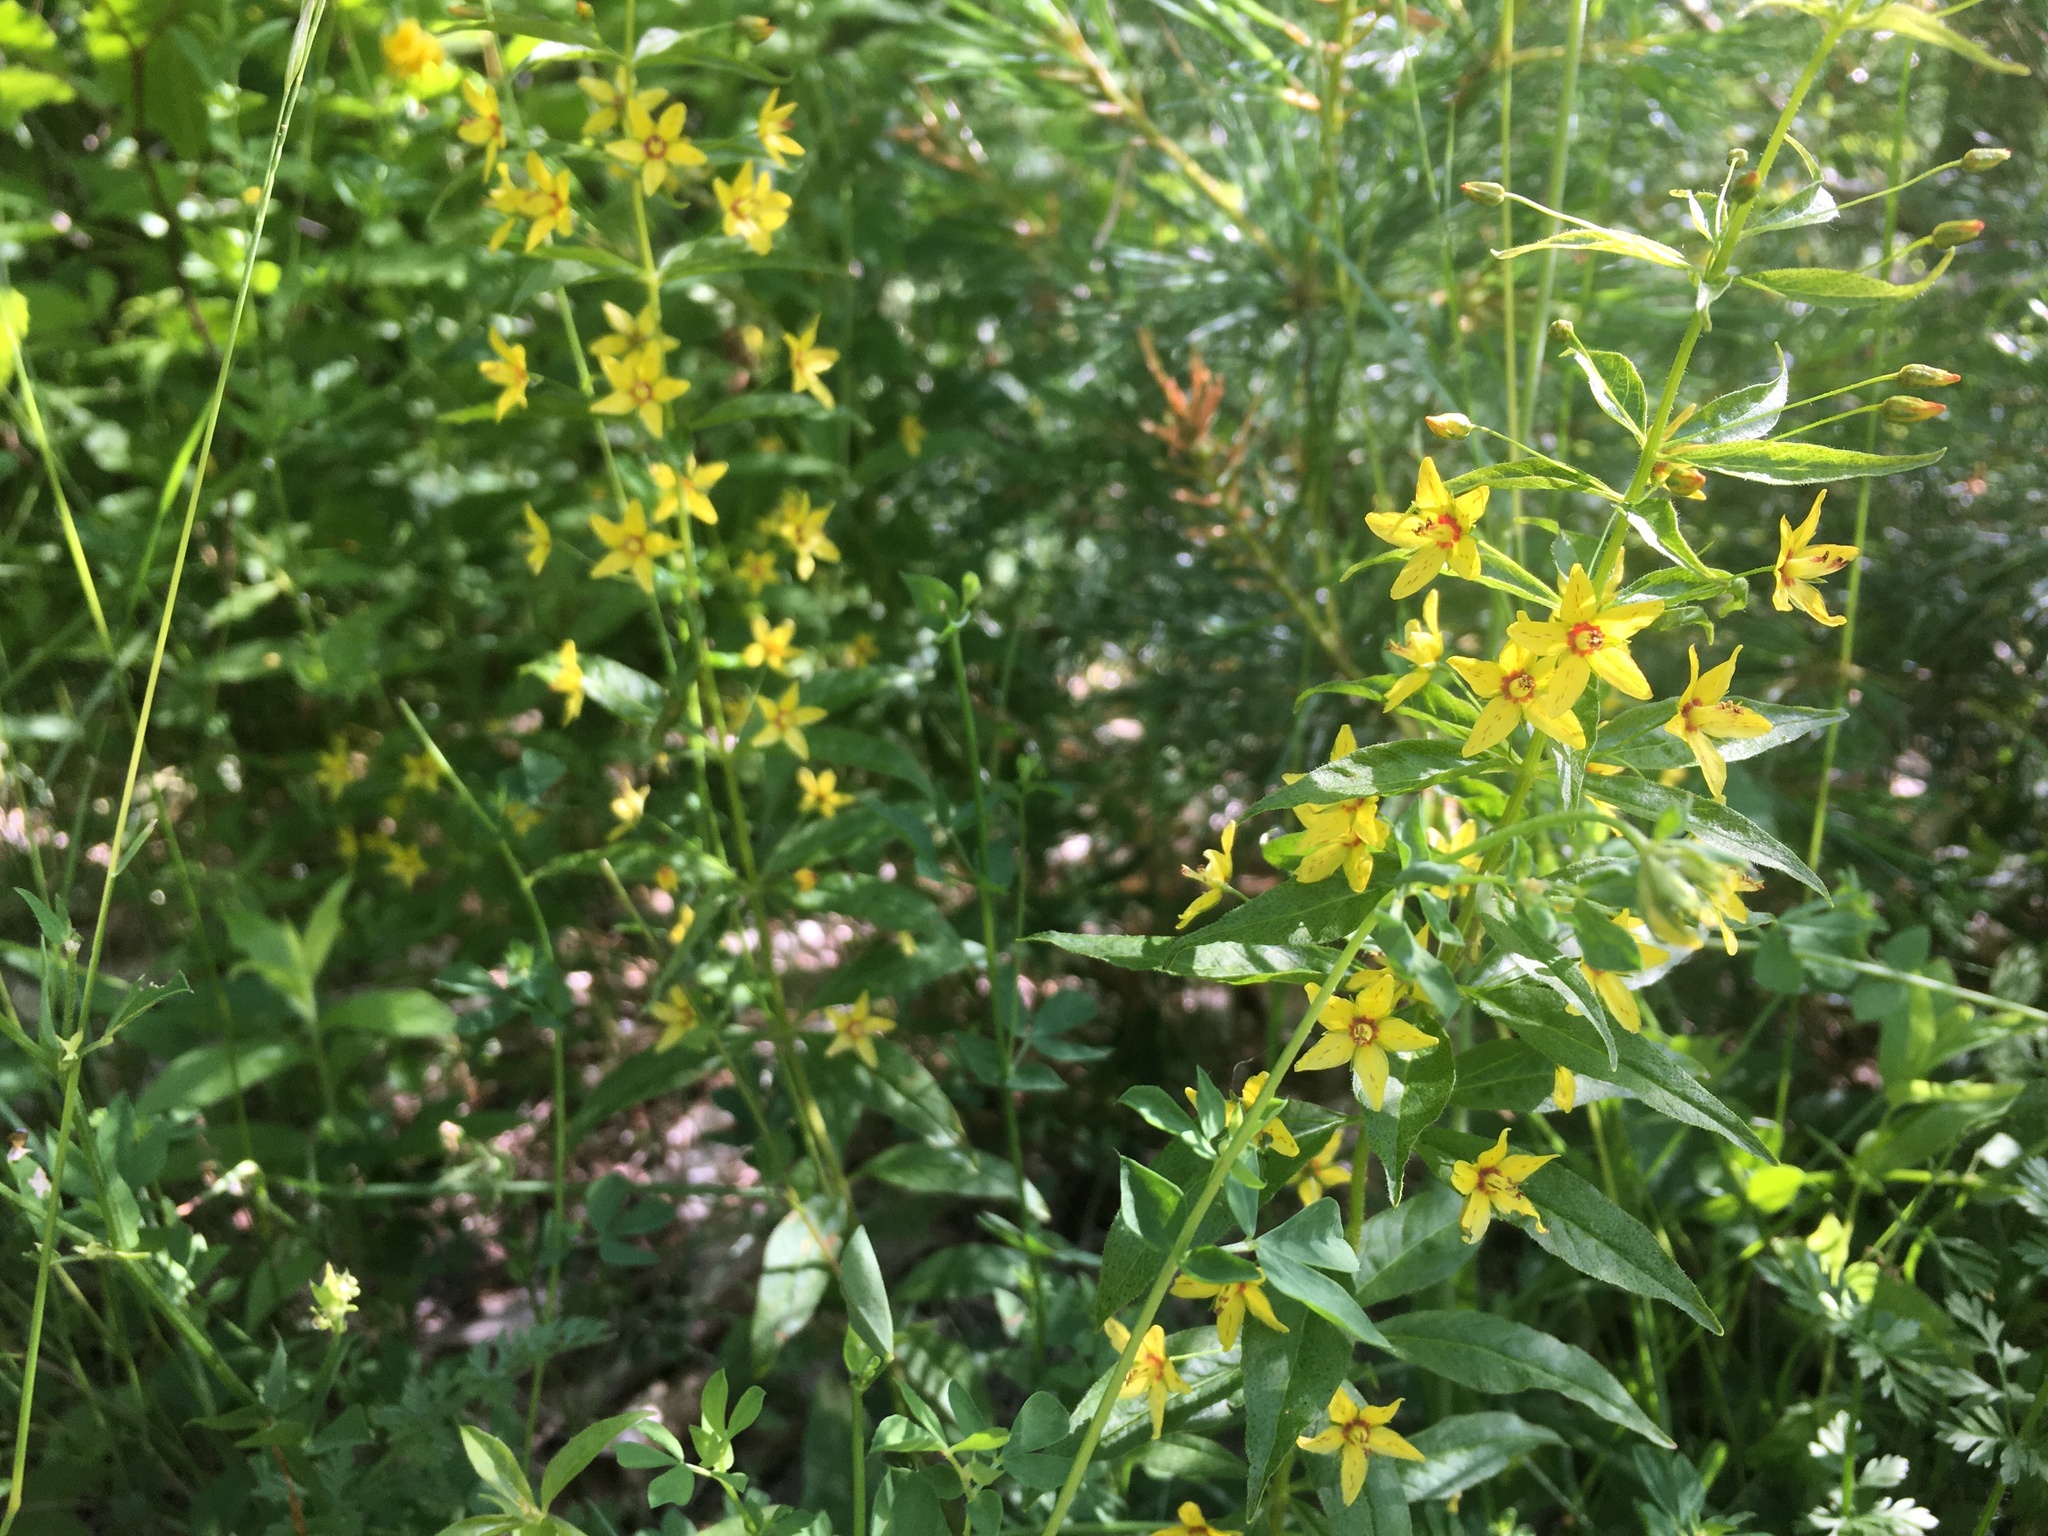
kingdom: Plantae
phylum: Tracheophyta
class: Magnoliopsida
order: Ericales
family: Primulaceae
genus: Lysimachia
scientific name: Lysimachia quadrifolia
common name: Whorled loosestrife
